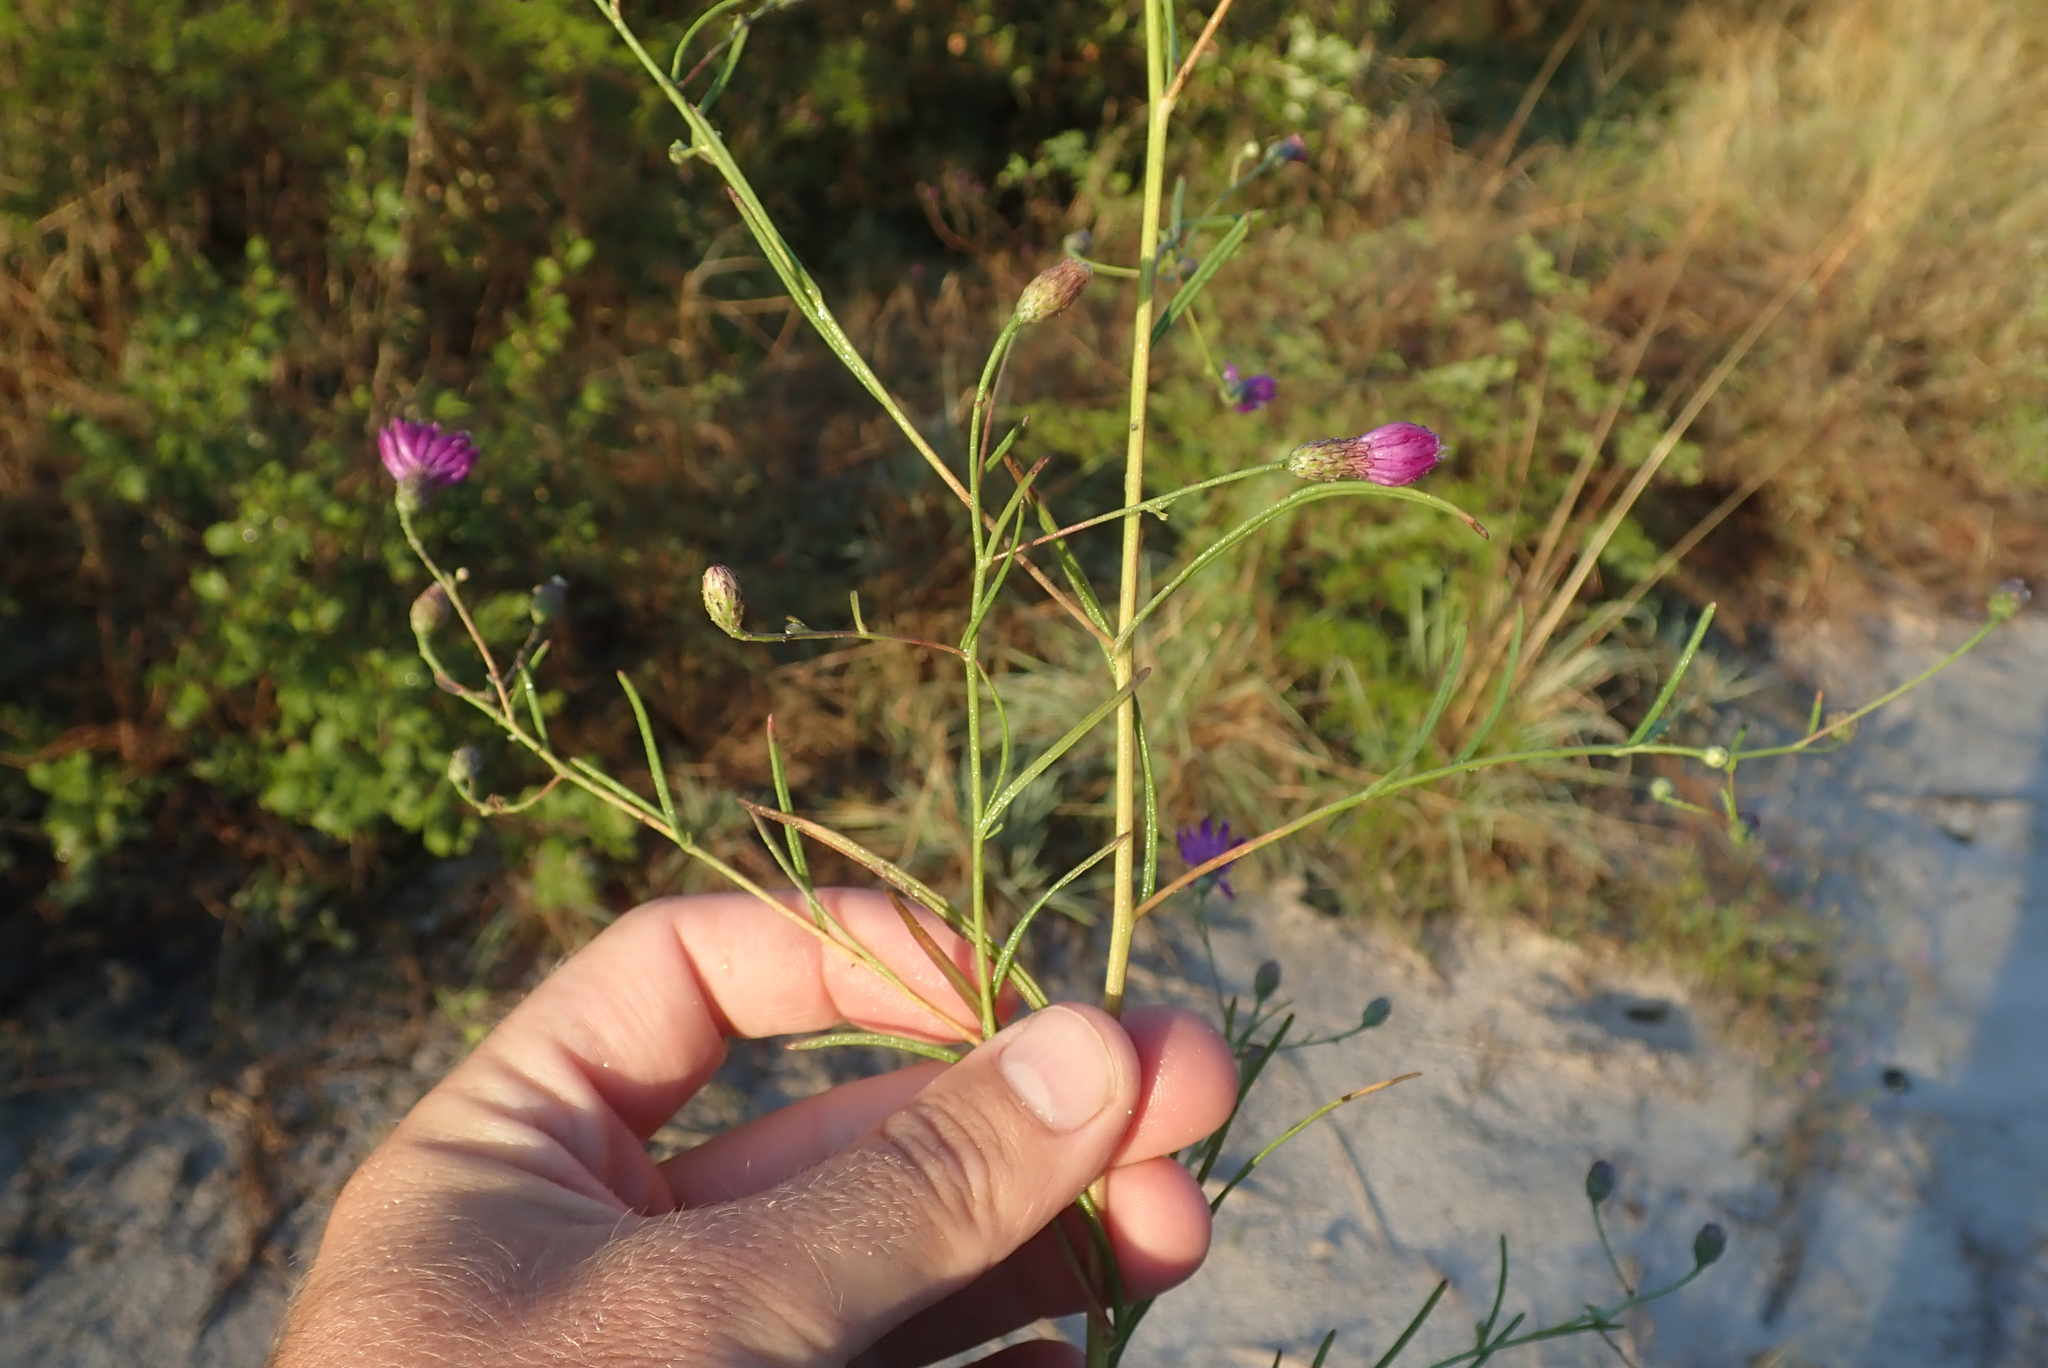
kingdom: Plantae
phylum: Tracheophyta
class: Magnoliopsida
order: Asterales
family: Asteraceae
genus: Crystallopollen
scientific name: Crystallopollen angustifolium
